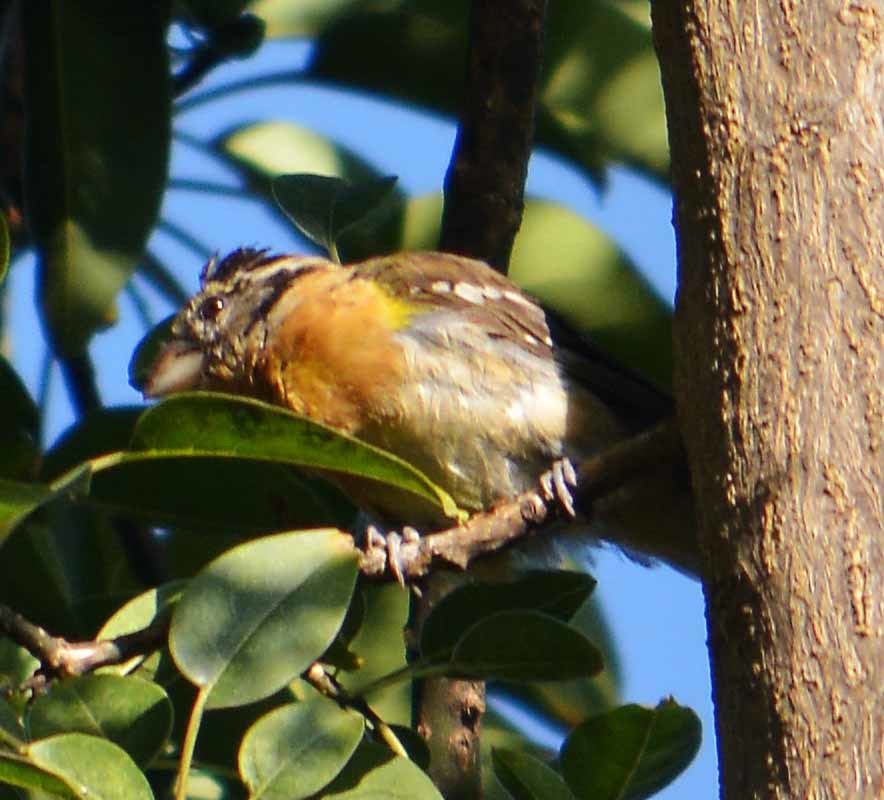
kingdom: Animalia
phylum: Chordata
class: Aves
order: Passeriformes
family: Cardinalidae
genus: Pheucticus
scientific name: Pheucticus melanocephalus
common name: Black-headed grosbeak
